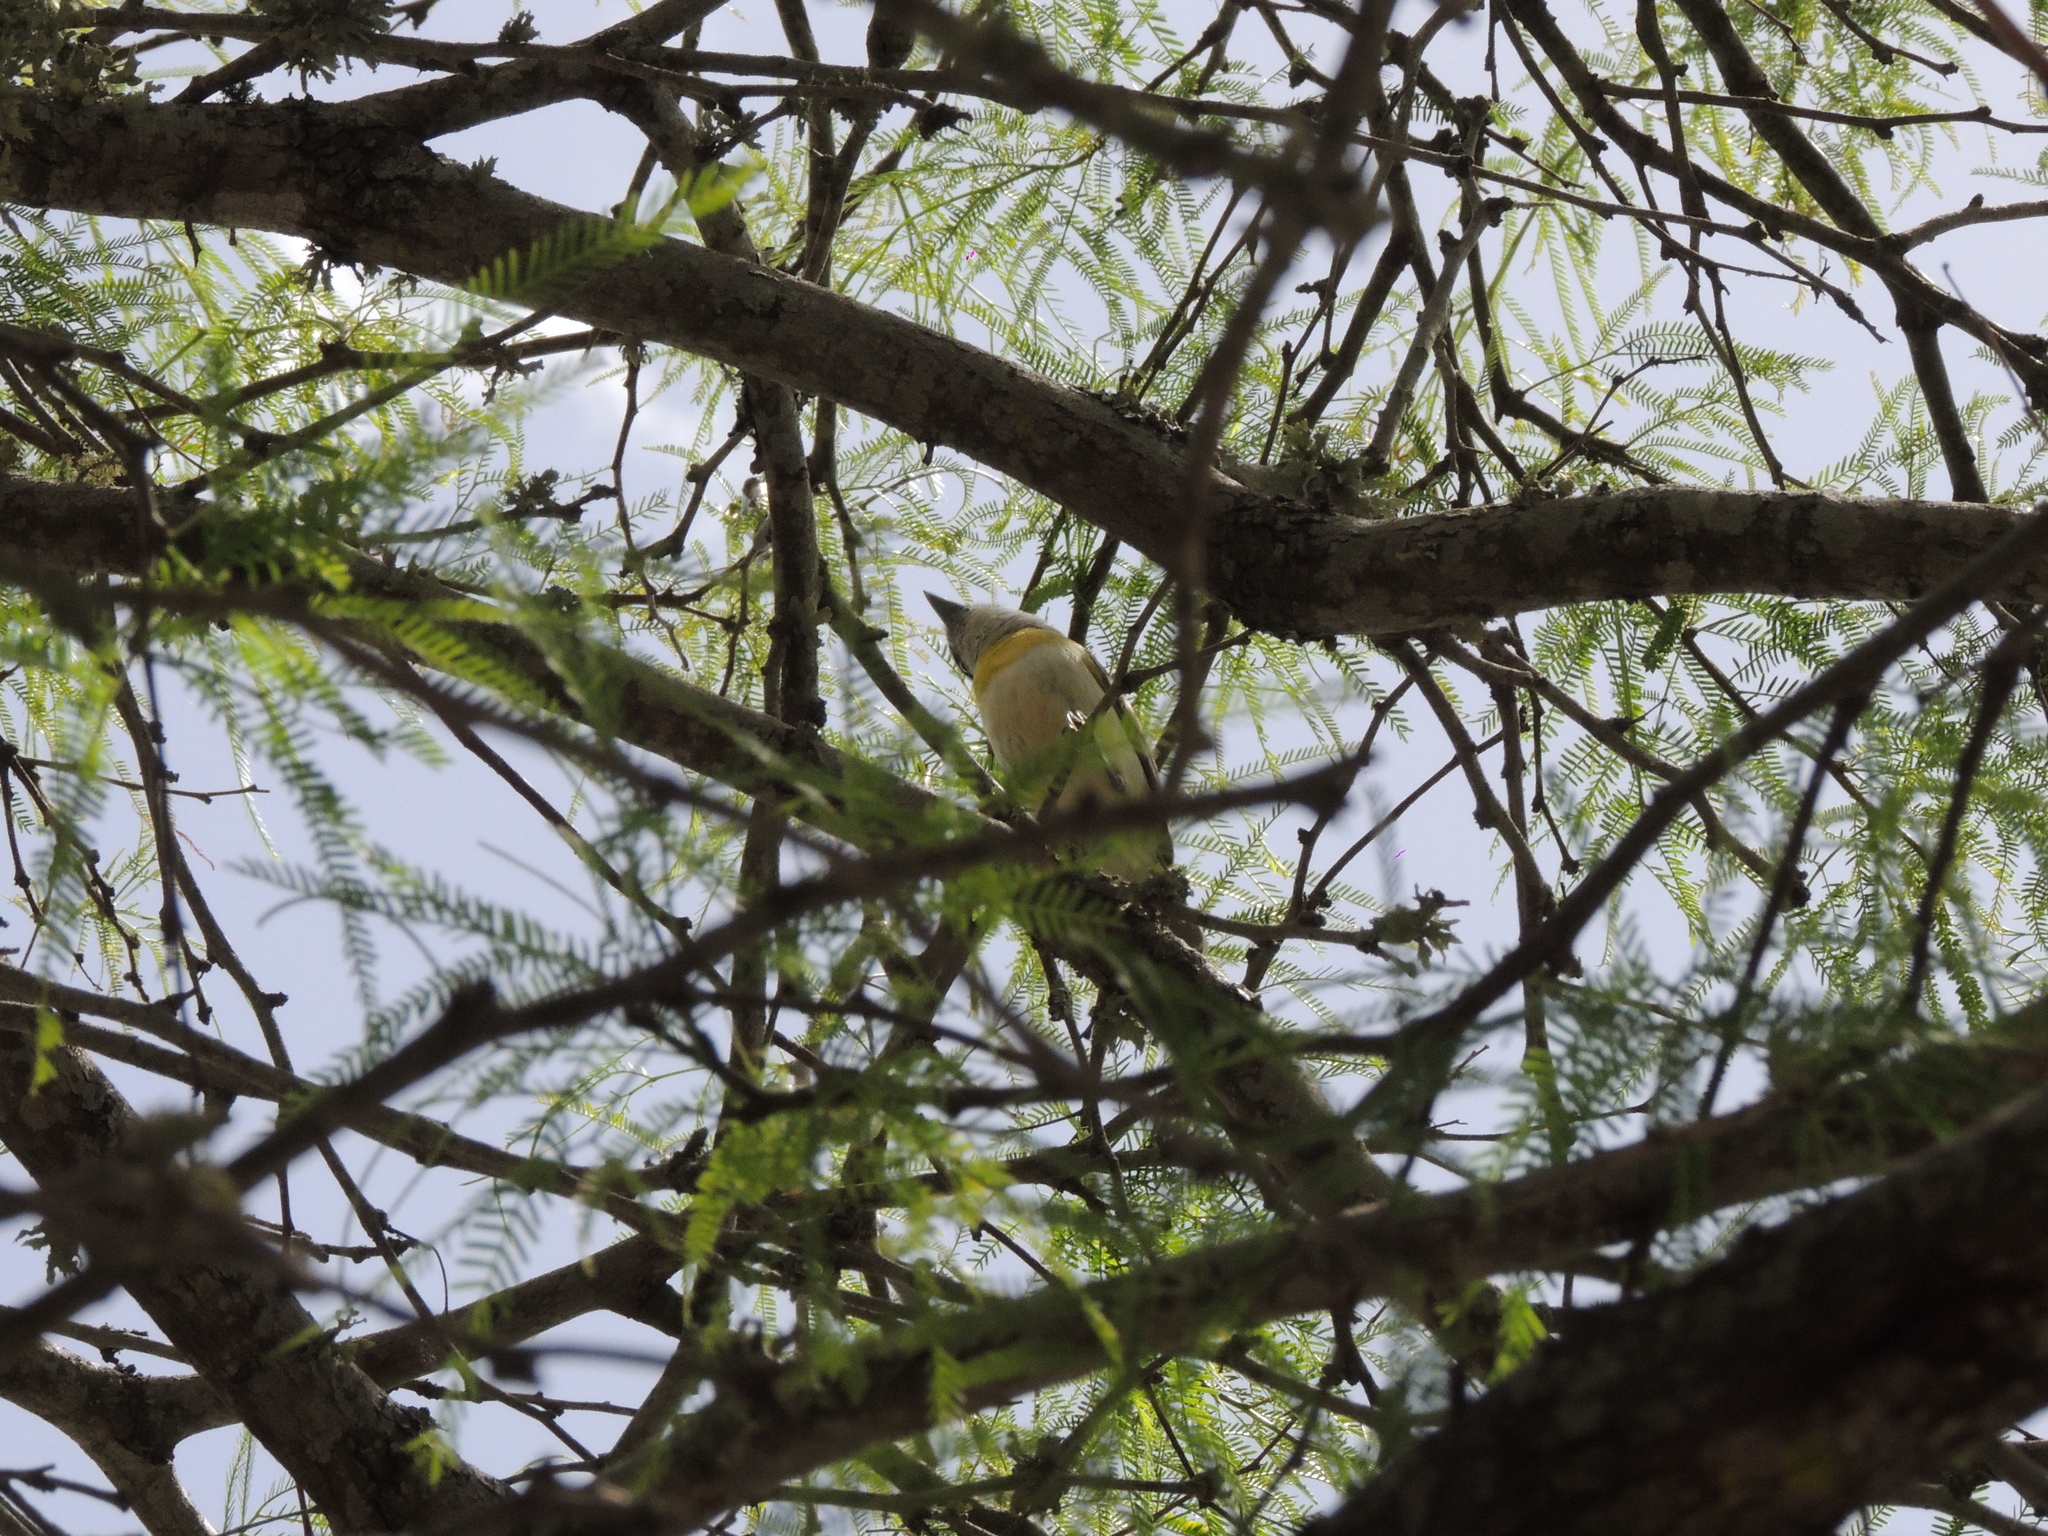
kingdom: Animalia
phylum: Chordata
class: Aves
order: Passeriformes
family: Cotingidae
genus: Pachyramphus
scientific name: Pachyramphus viridis
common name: Green-backed becard
